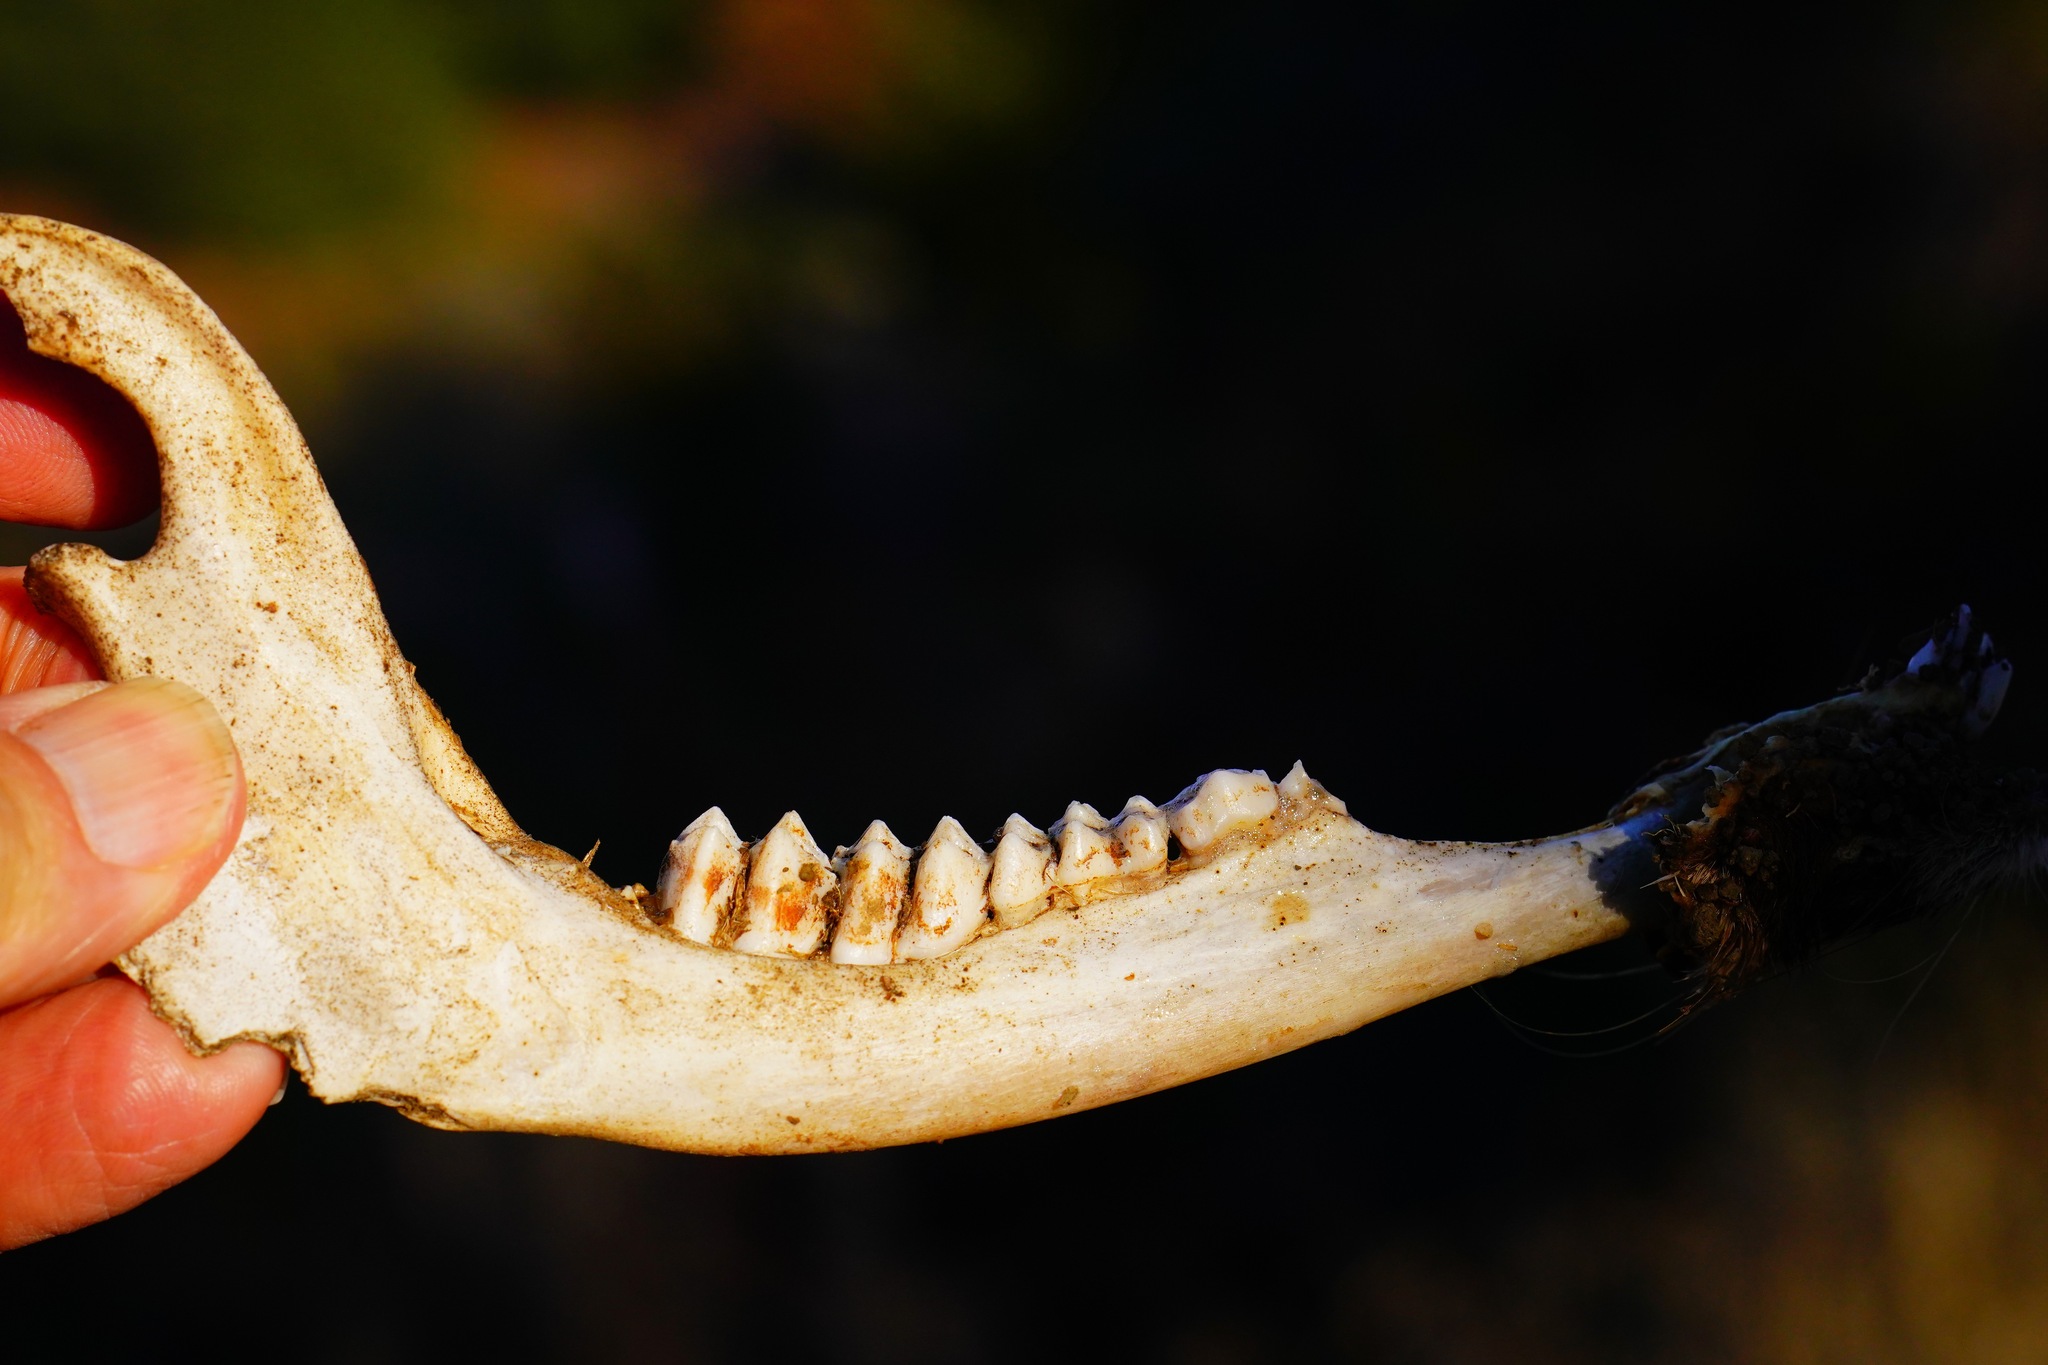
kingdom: Animalia
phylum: Chordata
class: Mammalia
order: Artiodactyla
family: Cervidae
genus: Odocoileus
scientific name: Odocoileus hemionus
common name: Mule deer
